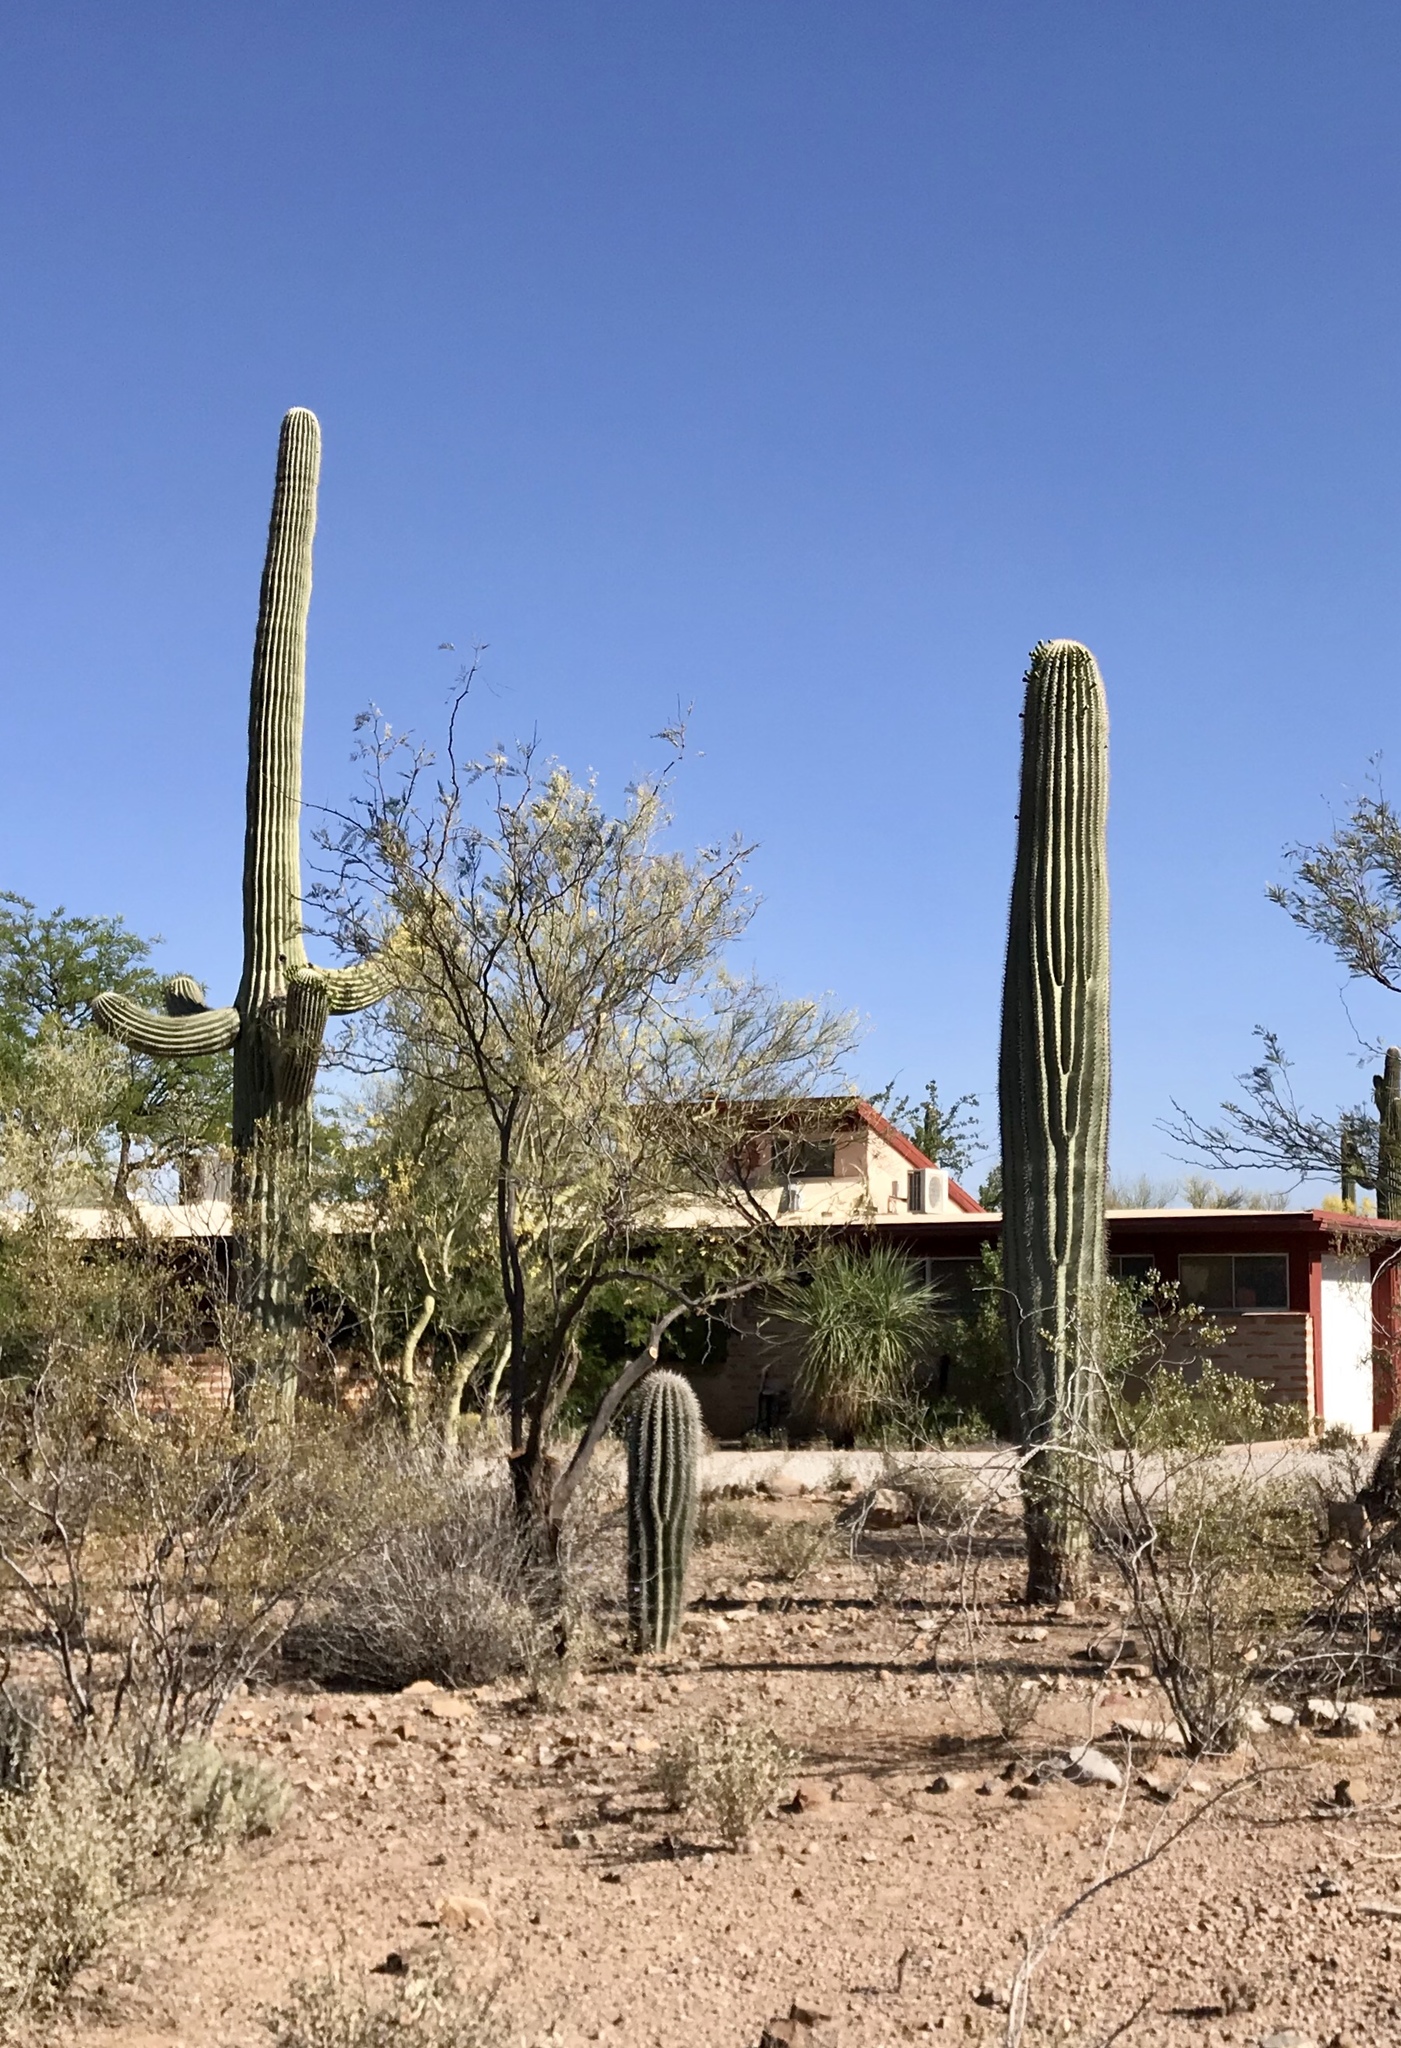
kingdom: Plantae
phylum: Tracheophyta
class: Magnoliopsida
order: Caryophyllales
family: Cactaceae
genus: Carnegiea
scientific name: Carnegiea gigantea
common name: Saguaro
